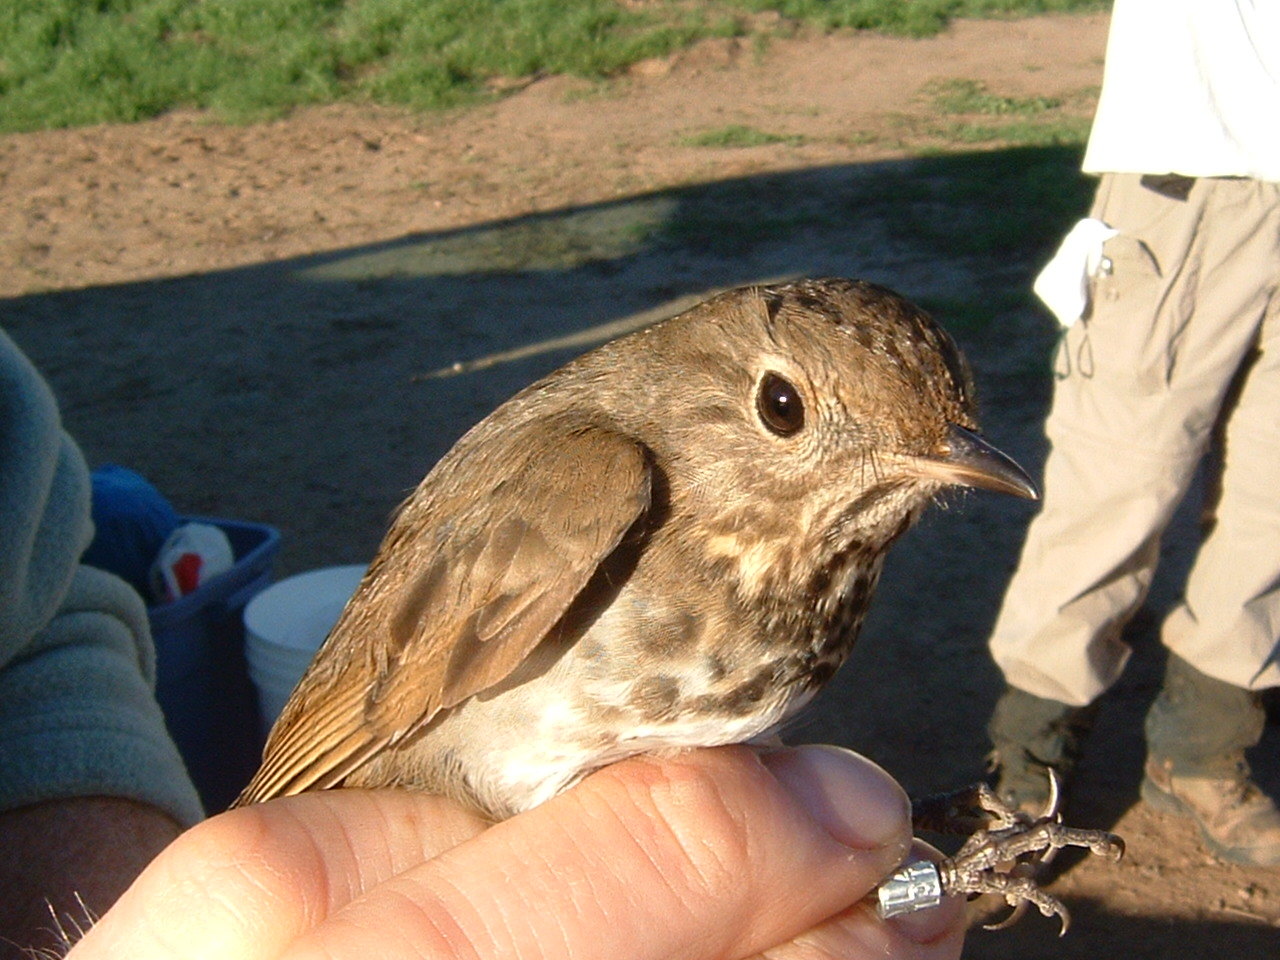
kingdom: Animalia
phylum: Chordata
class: Aves
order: Passeriformes
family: Turdidae
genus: Catharus
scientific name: Catharus guttatus
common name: Hermit thrush
